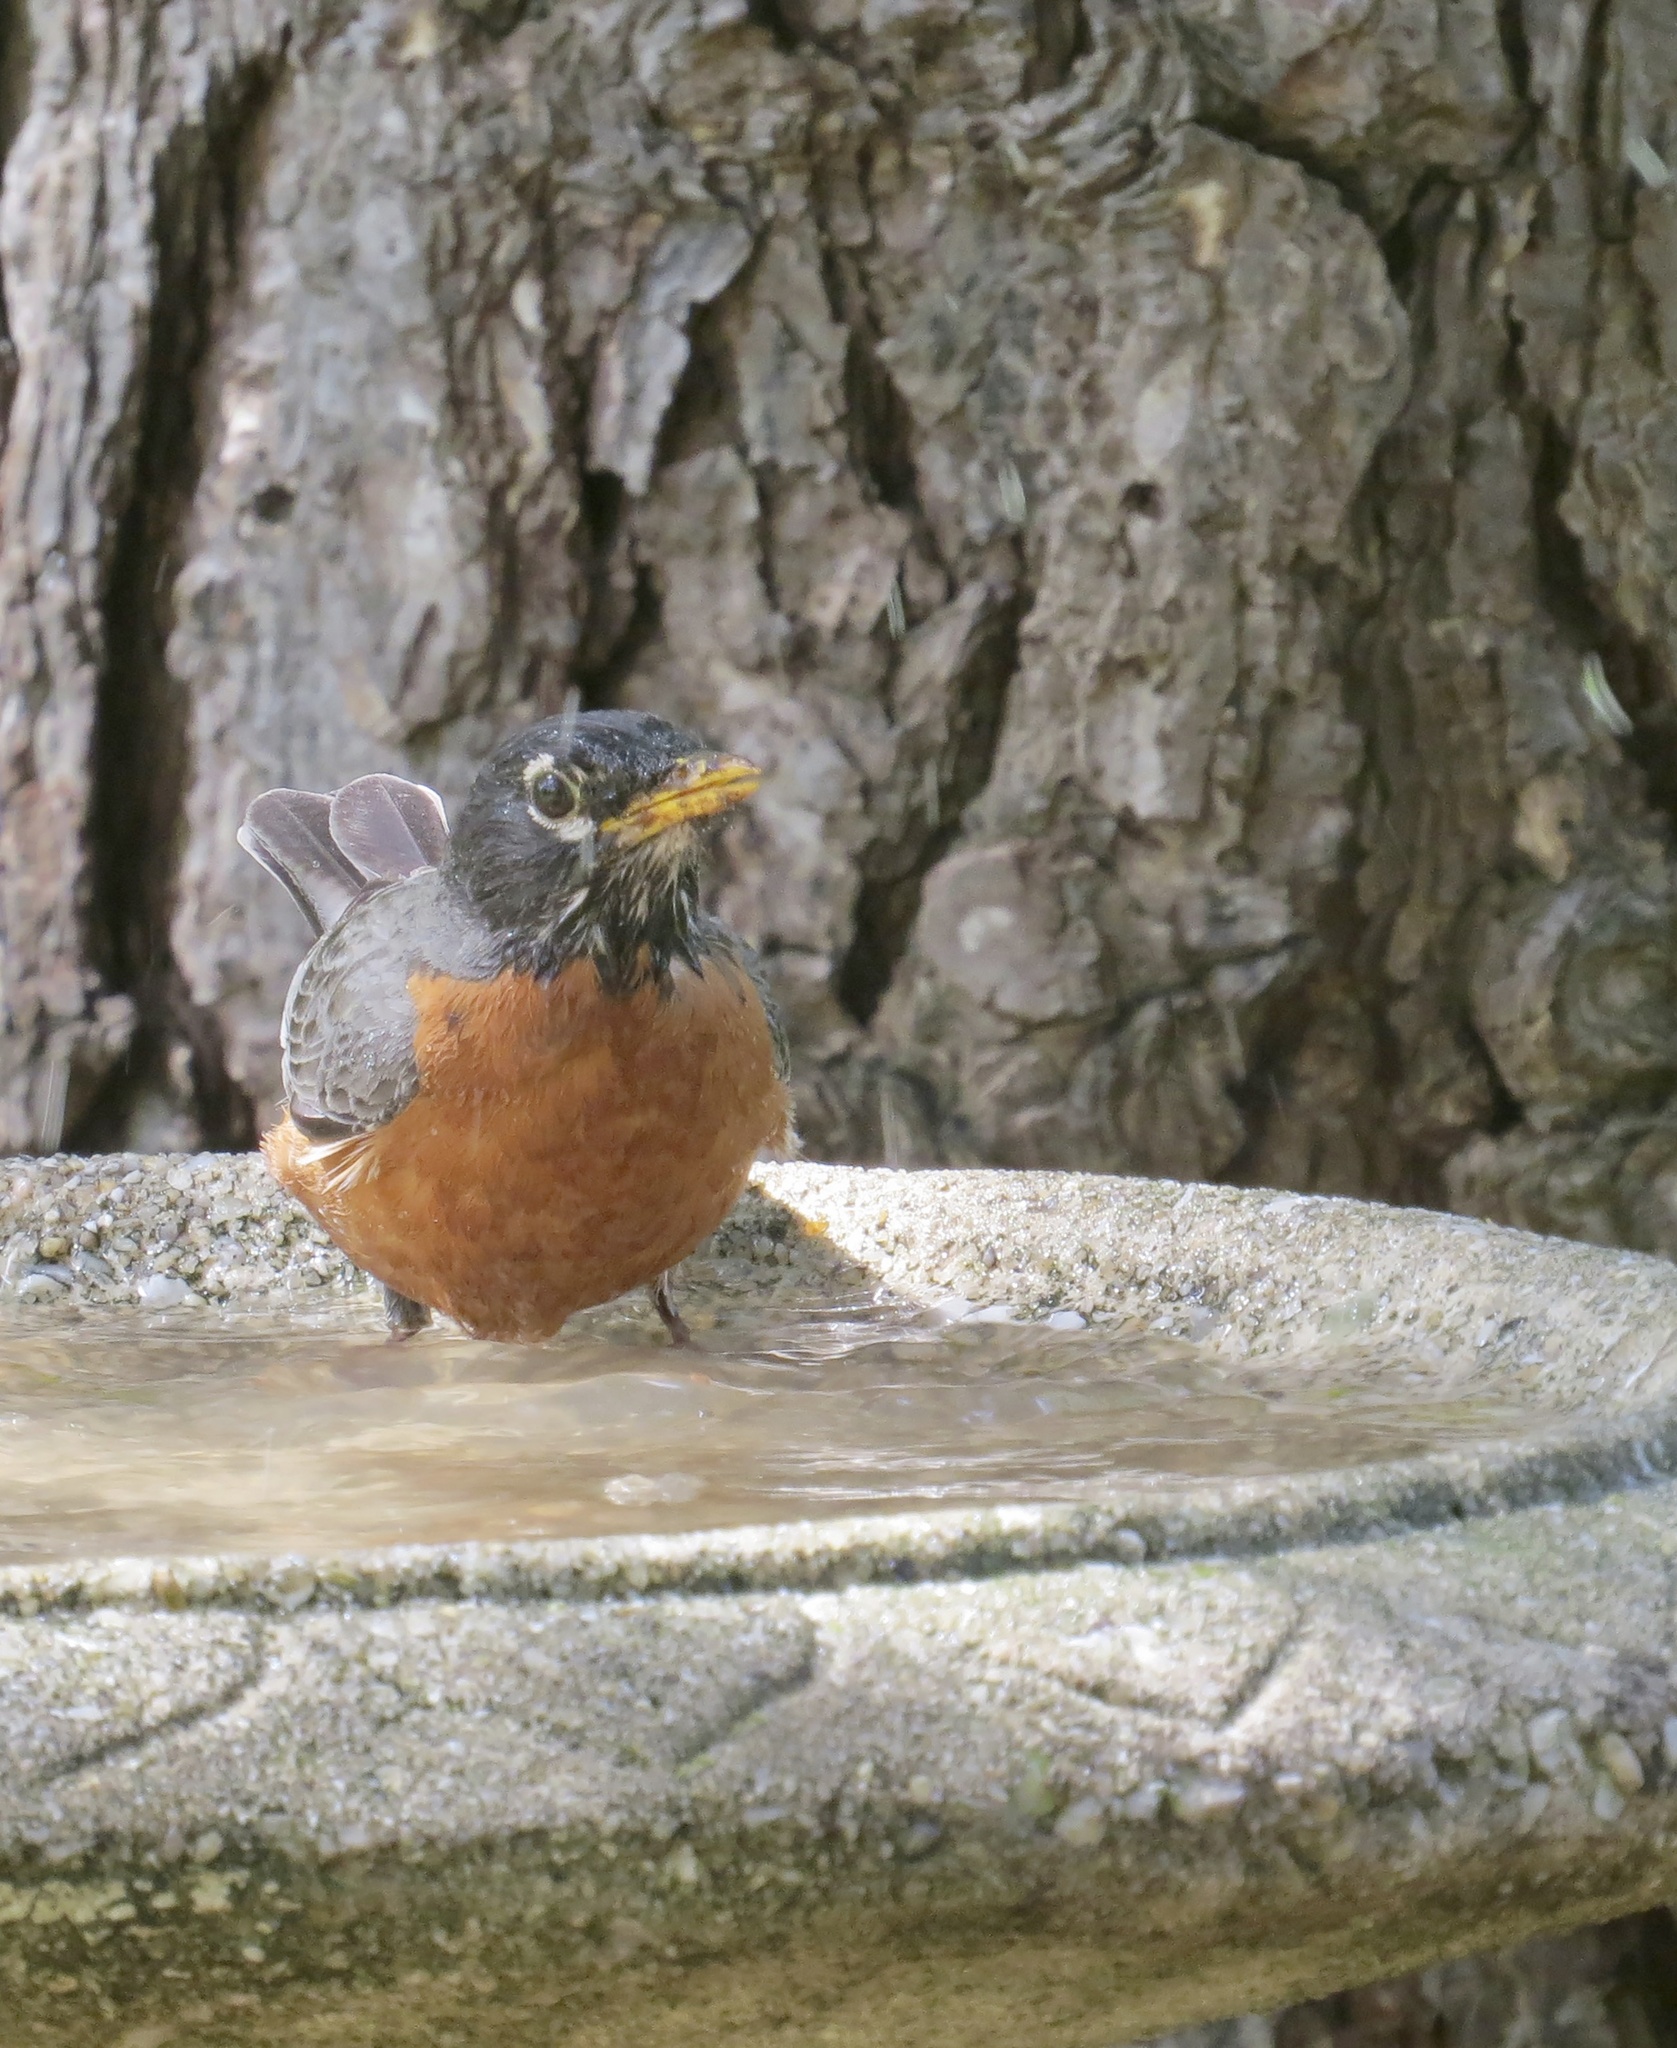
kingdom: Animalia
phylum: Chordata
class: Aves
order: Passeriformes
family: Turdidae
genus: Turdus
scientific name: Turdus migratorius
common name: American robin
